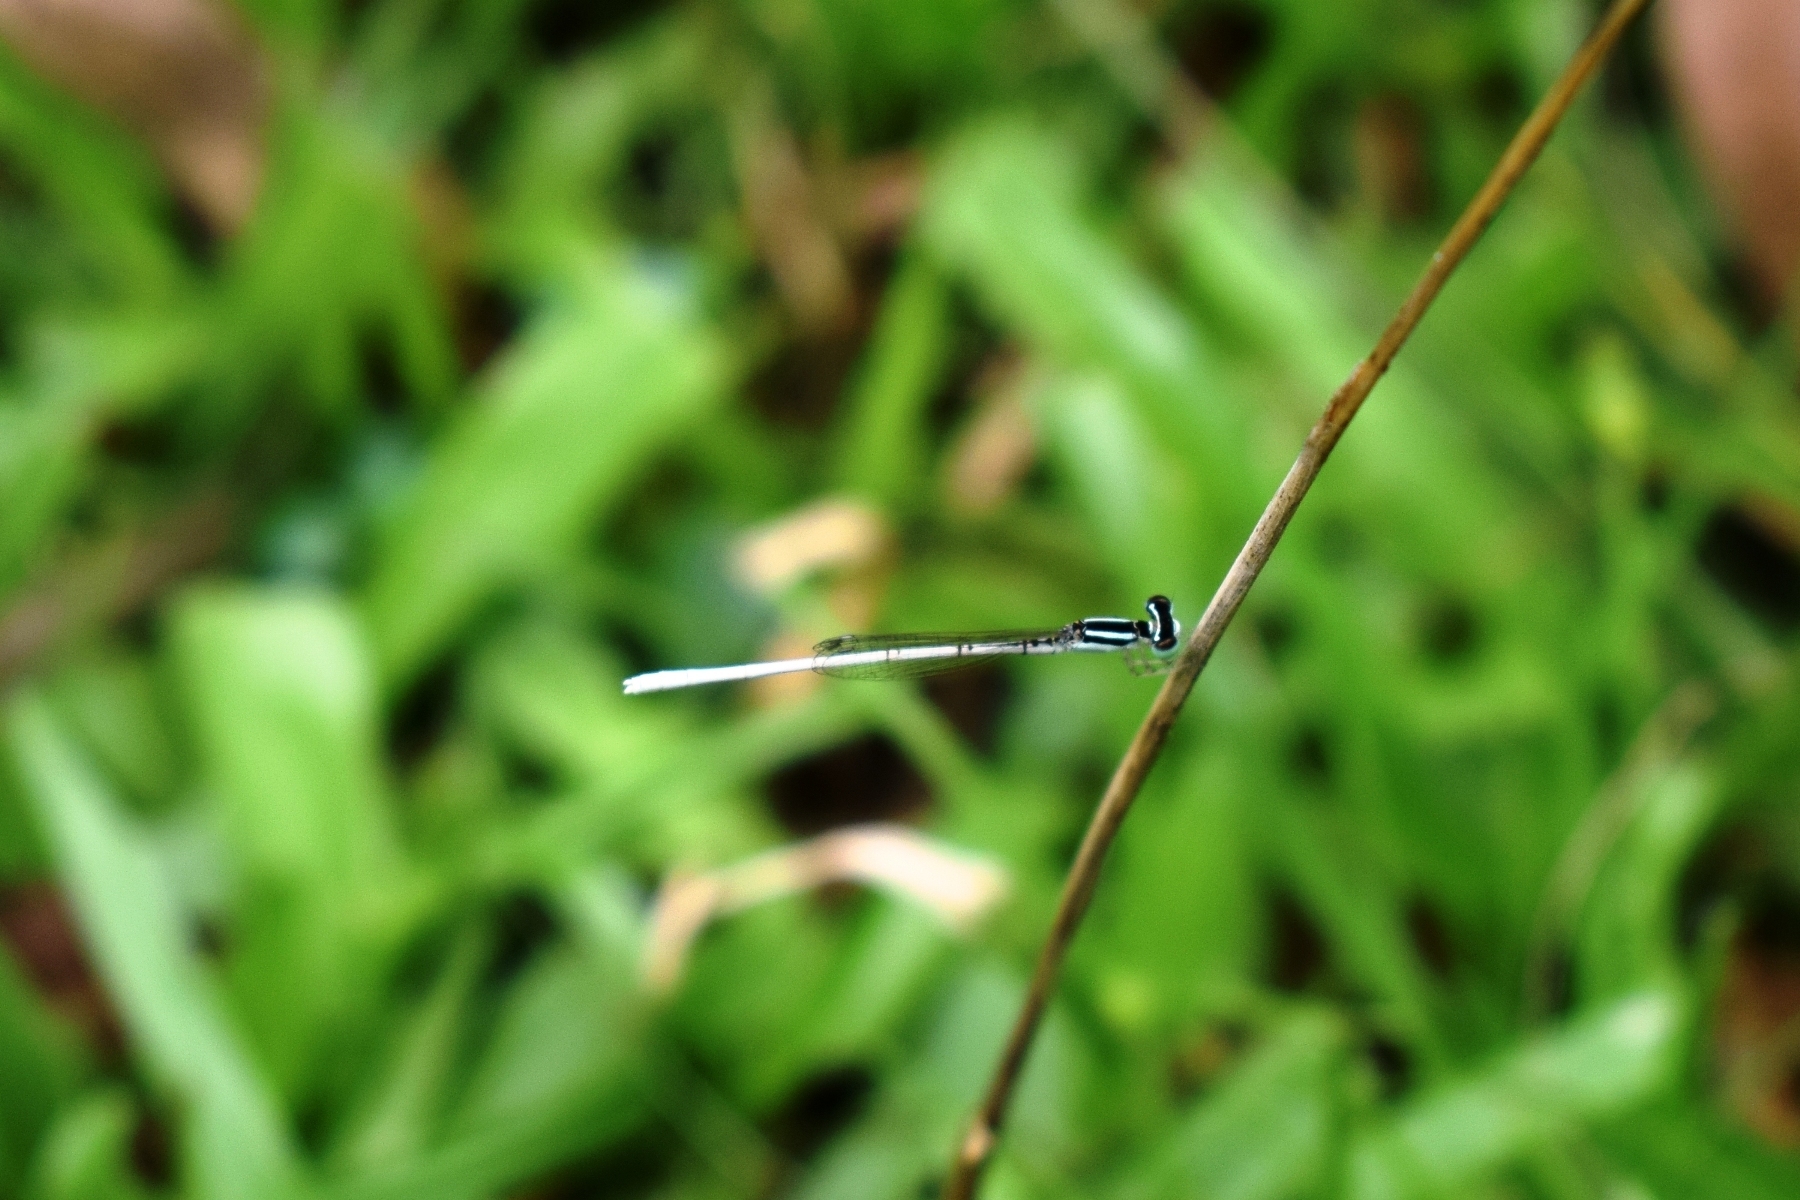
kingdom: Animalia
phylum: Arthropoda
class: Insecta
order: Odonata
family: Coenagrionidae
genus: Agriocnemis
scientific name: Agriocnemis lacteola
